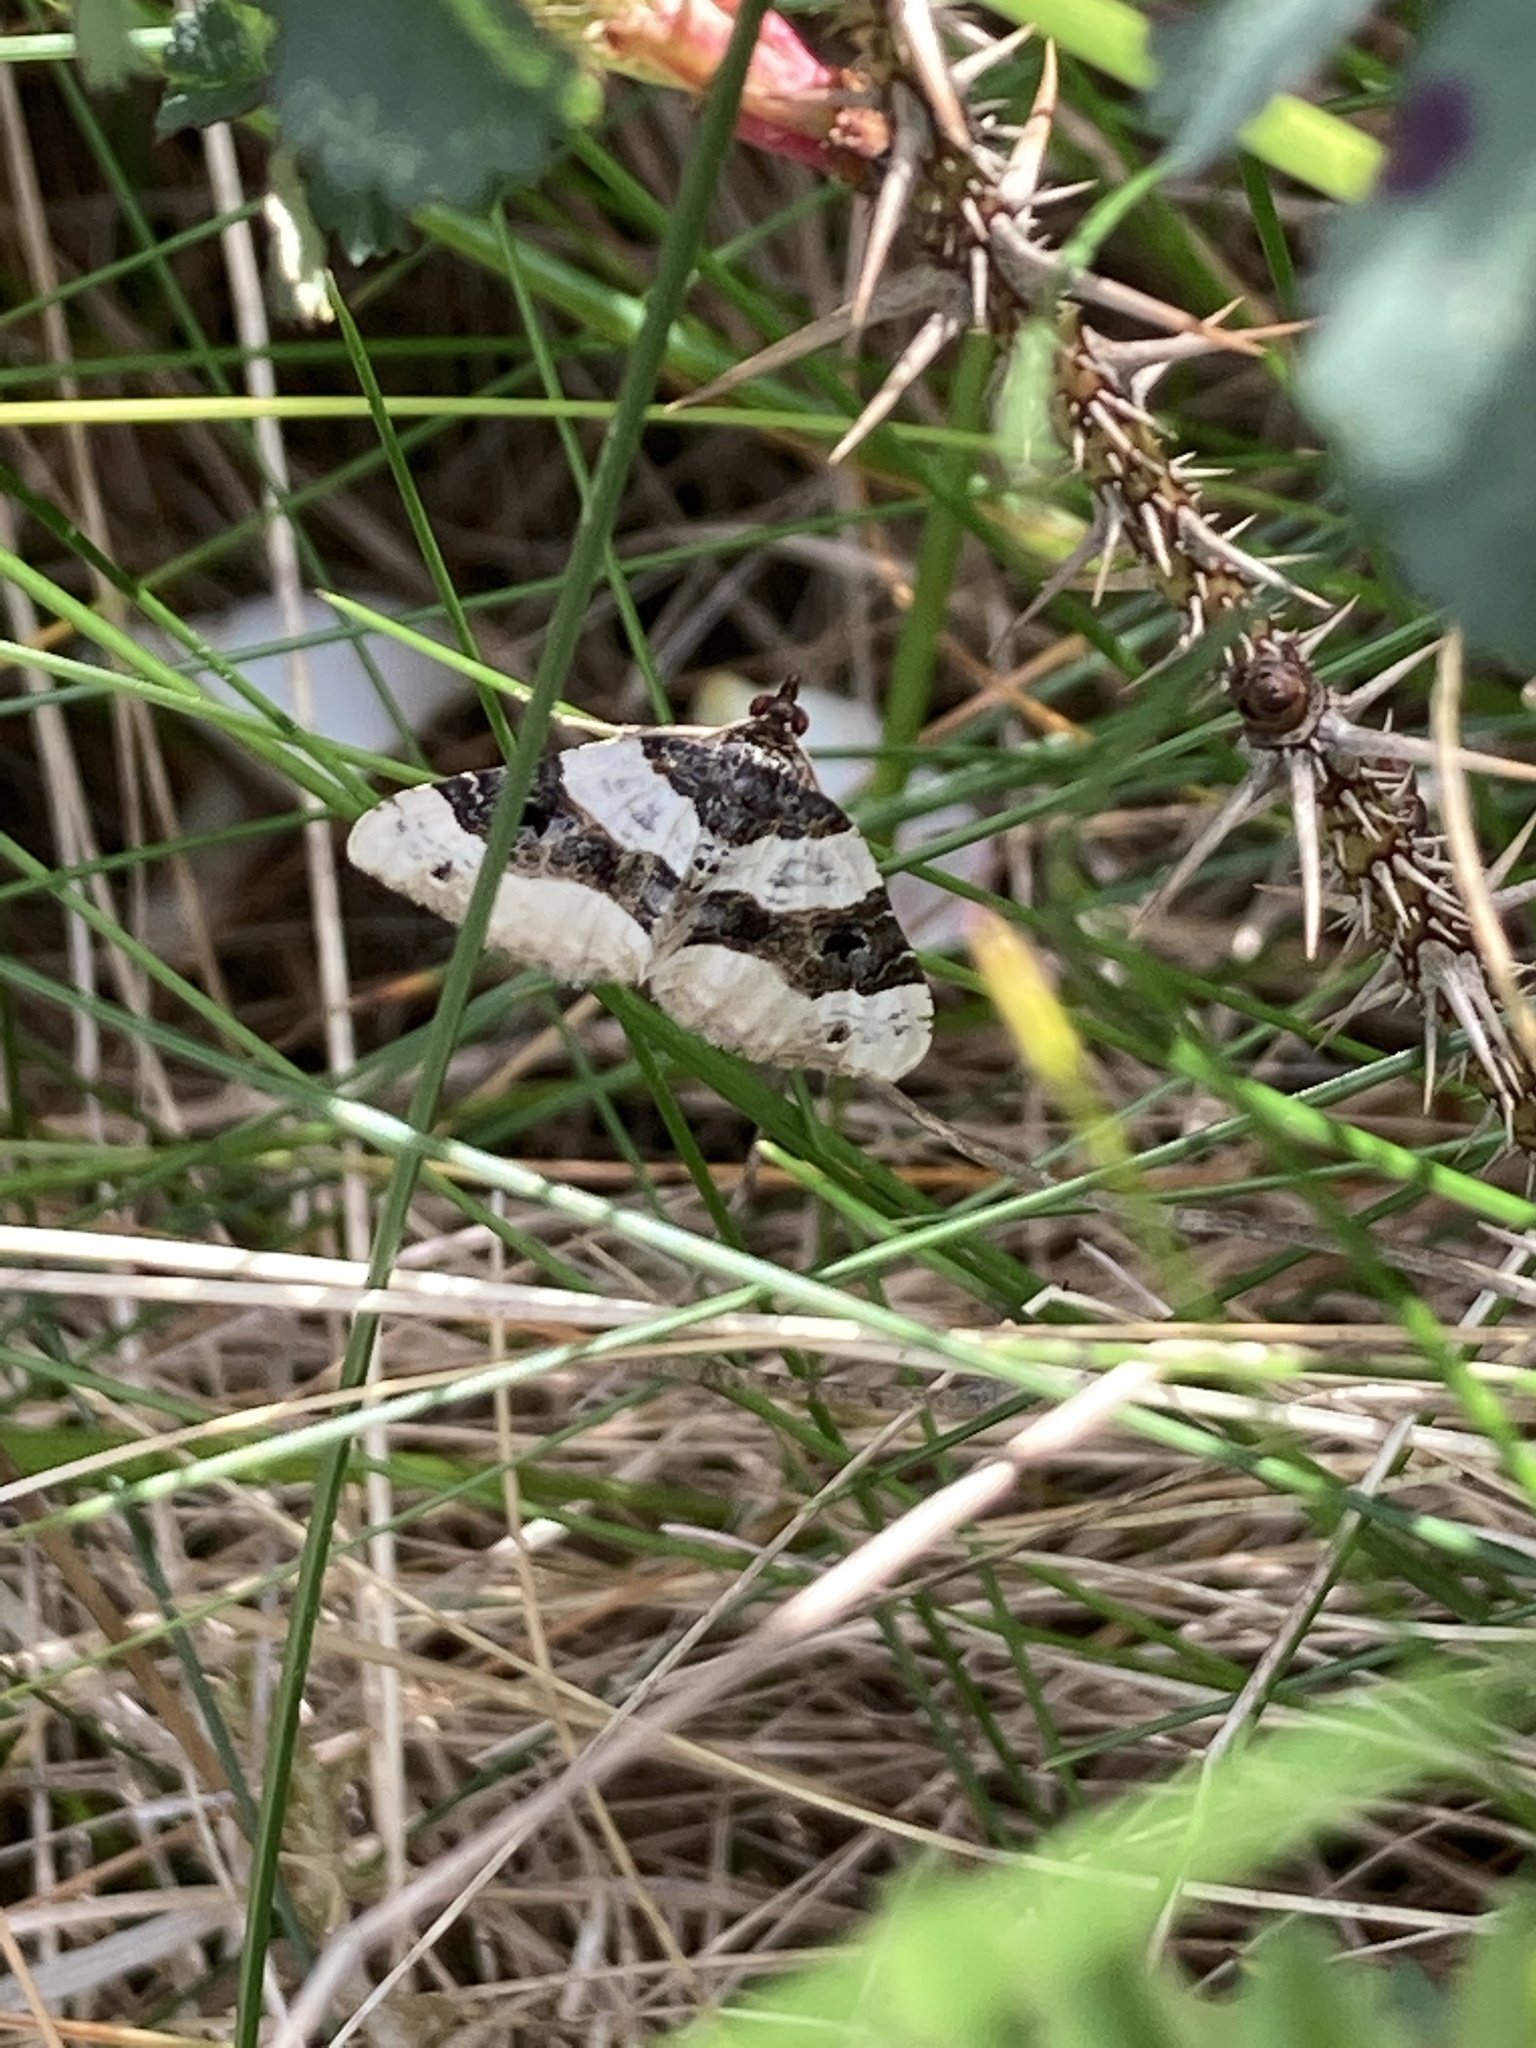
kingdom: Animalia
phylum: Arthropoda
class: Insecta
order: Lepidoptera
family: Geometridae
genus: Cosmorhoe
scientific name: Cosmorhoe ocellata
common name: Purple bar
